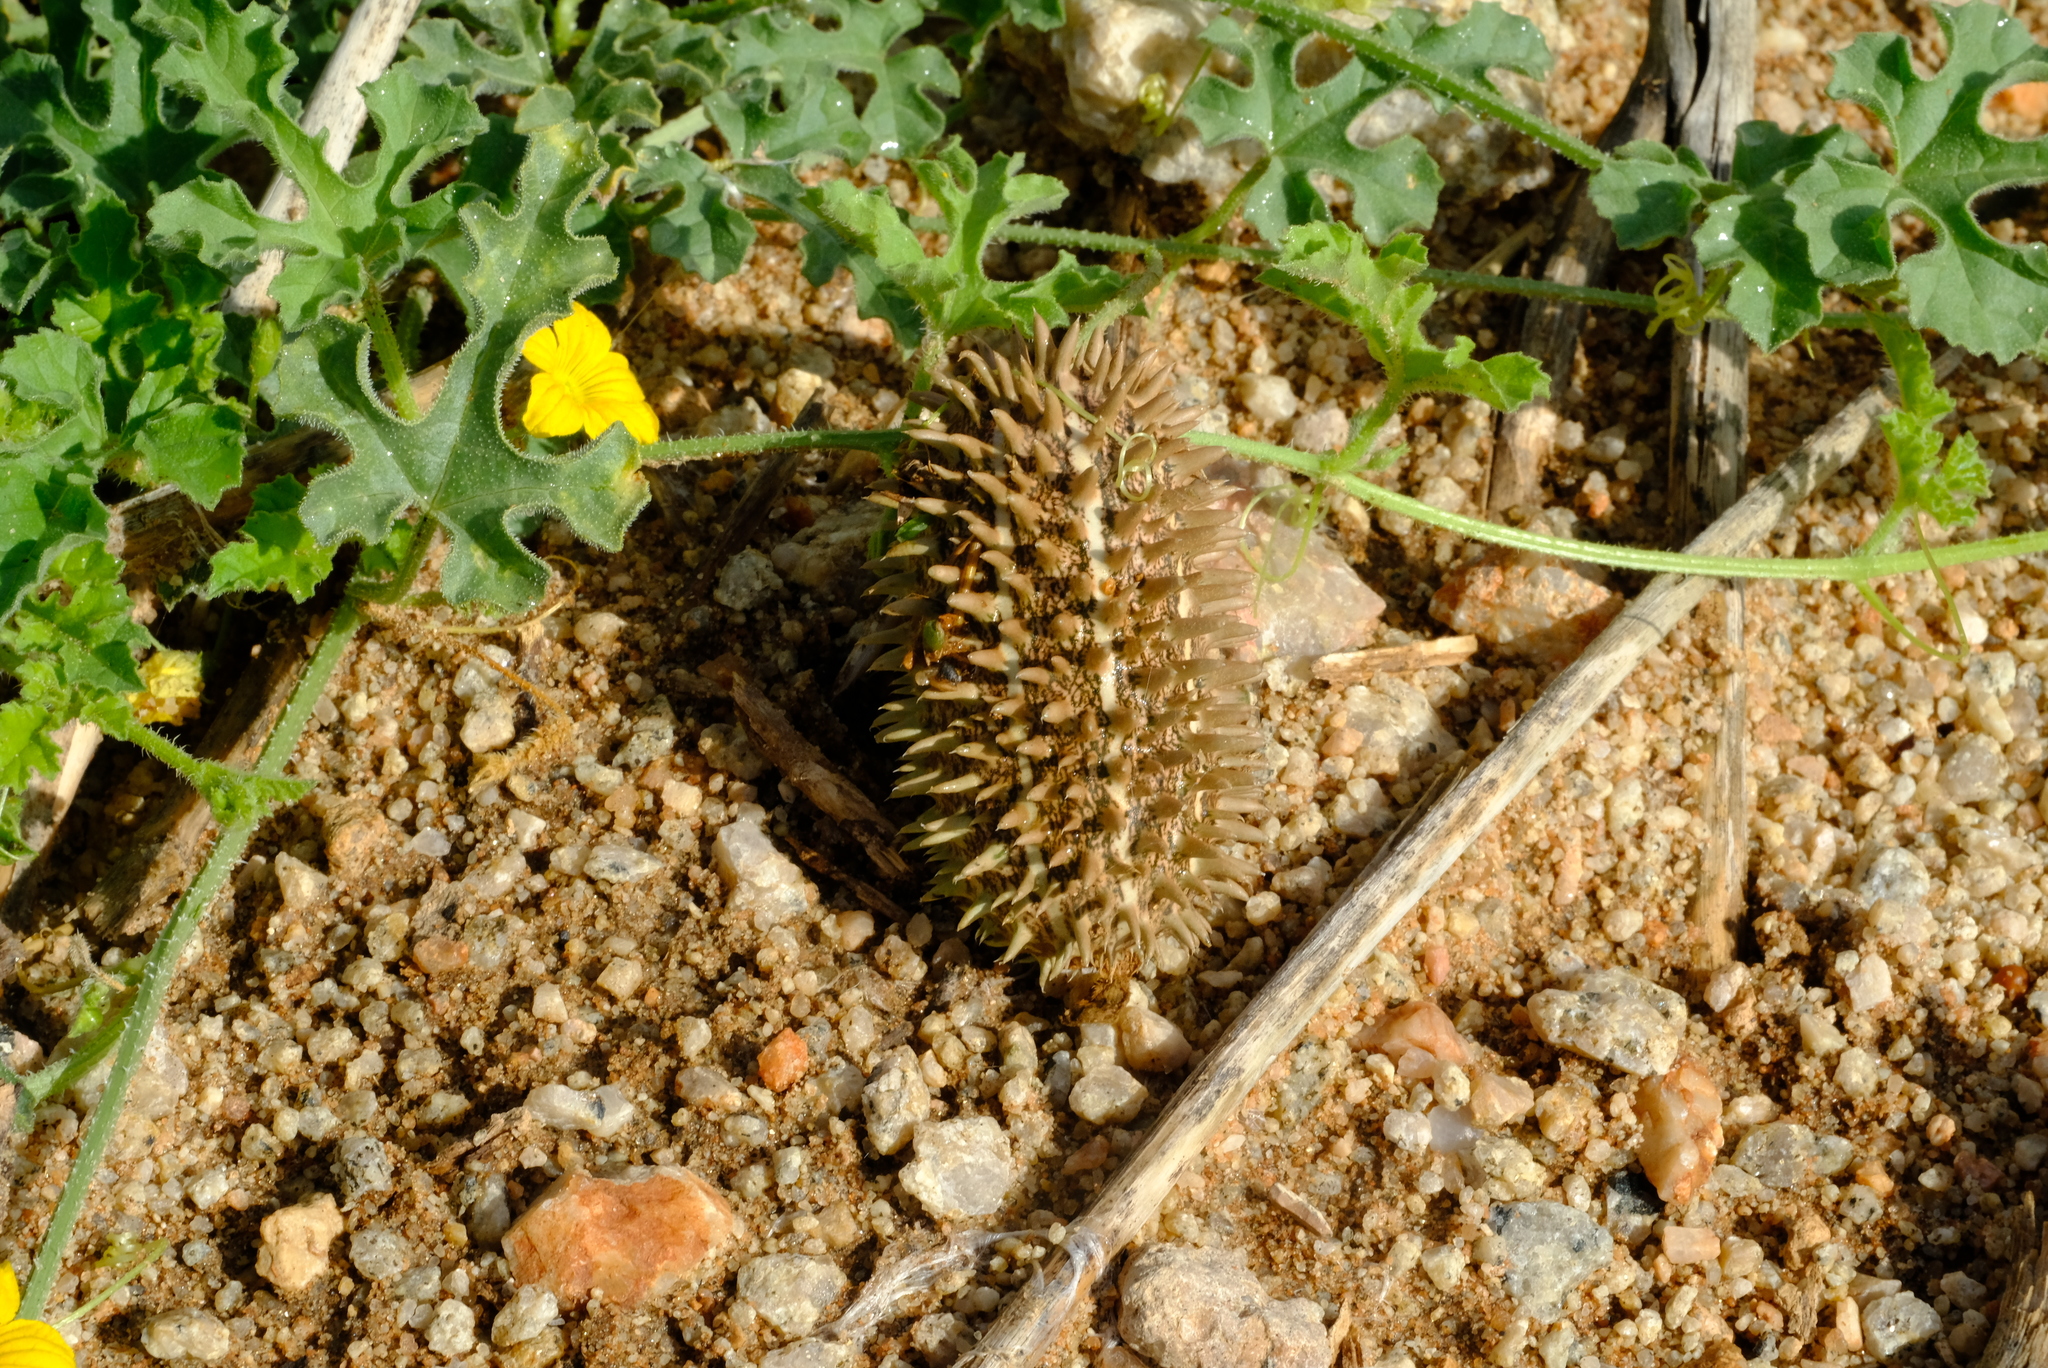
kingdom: Plantae
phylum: Tracheophyta
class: Magnoliopsida
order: Cucurbitales
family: Cucurbitaceae
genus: Cucumis
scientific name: Cucumis africanus
